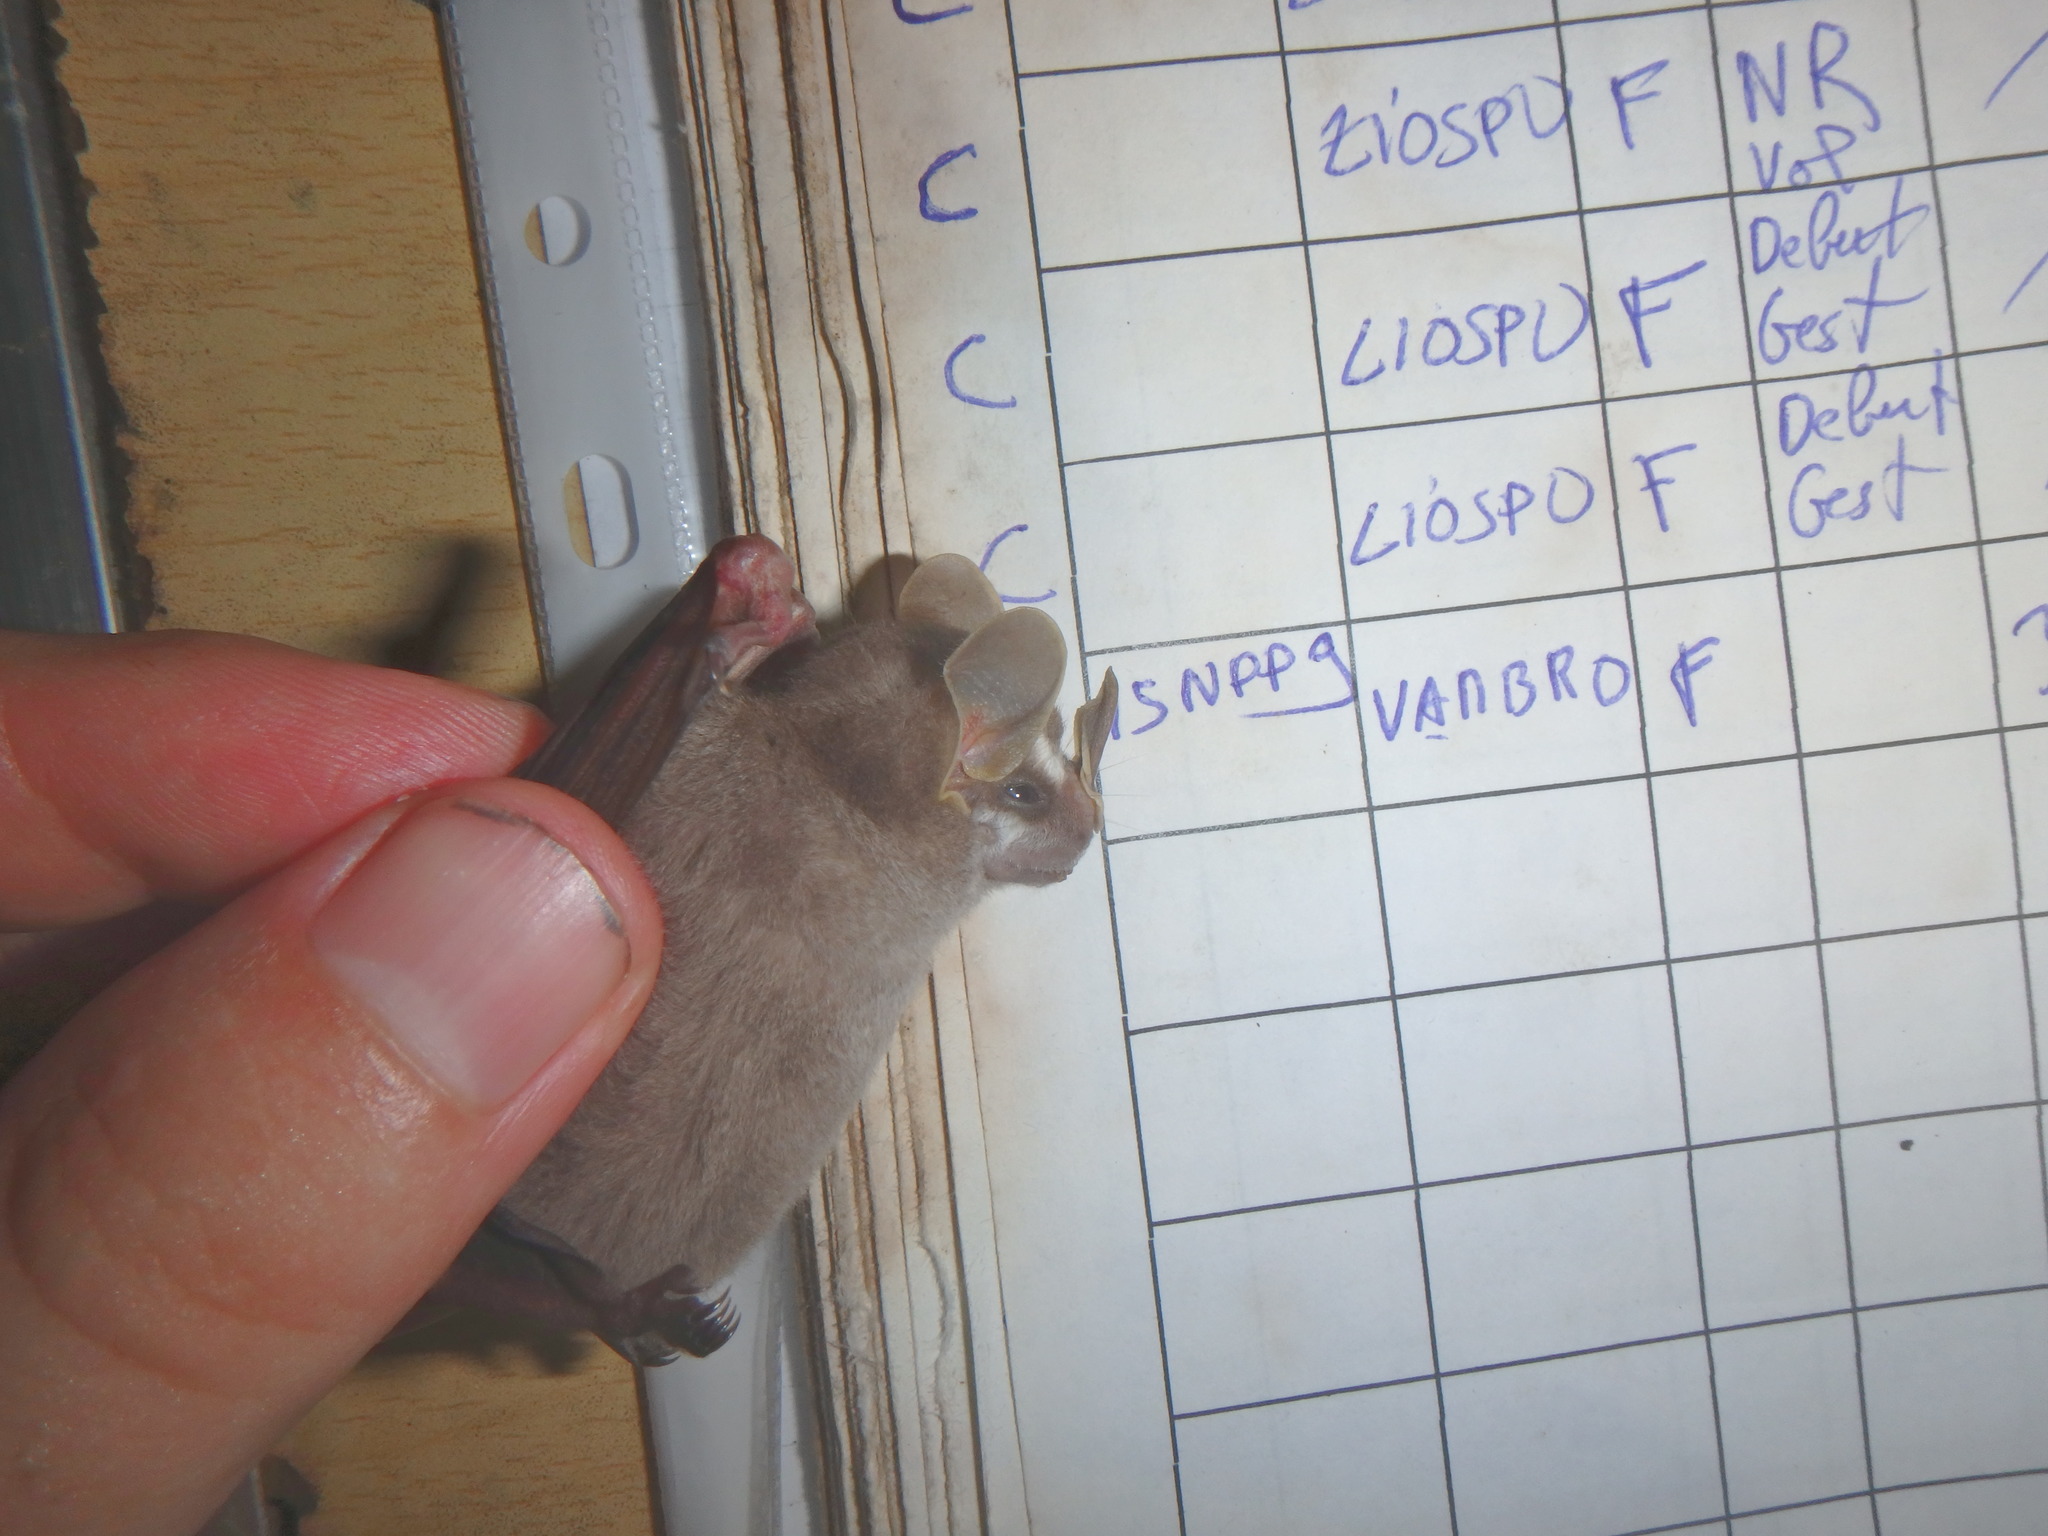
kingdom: Animalia
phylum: Chordata
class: Mammalia
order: Chiroptera
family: Phyllostomidae
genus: Vampyriscus
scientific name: Vampyriscus brocki
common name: Brock's yellow-eared bat
